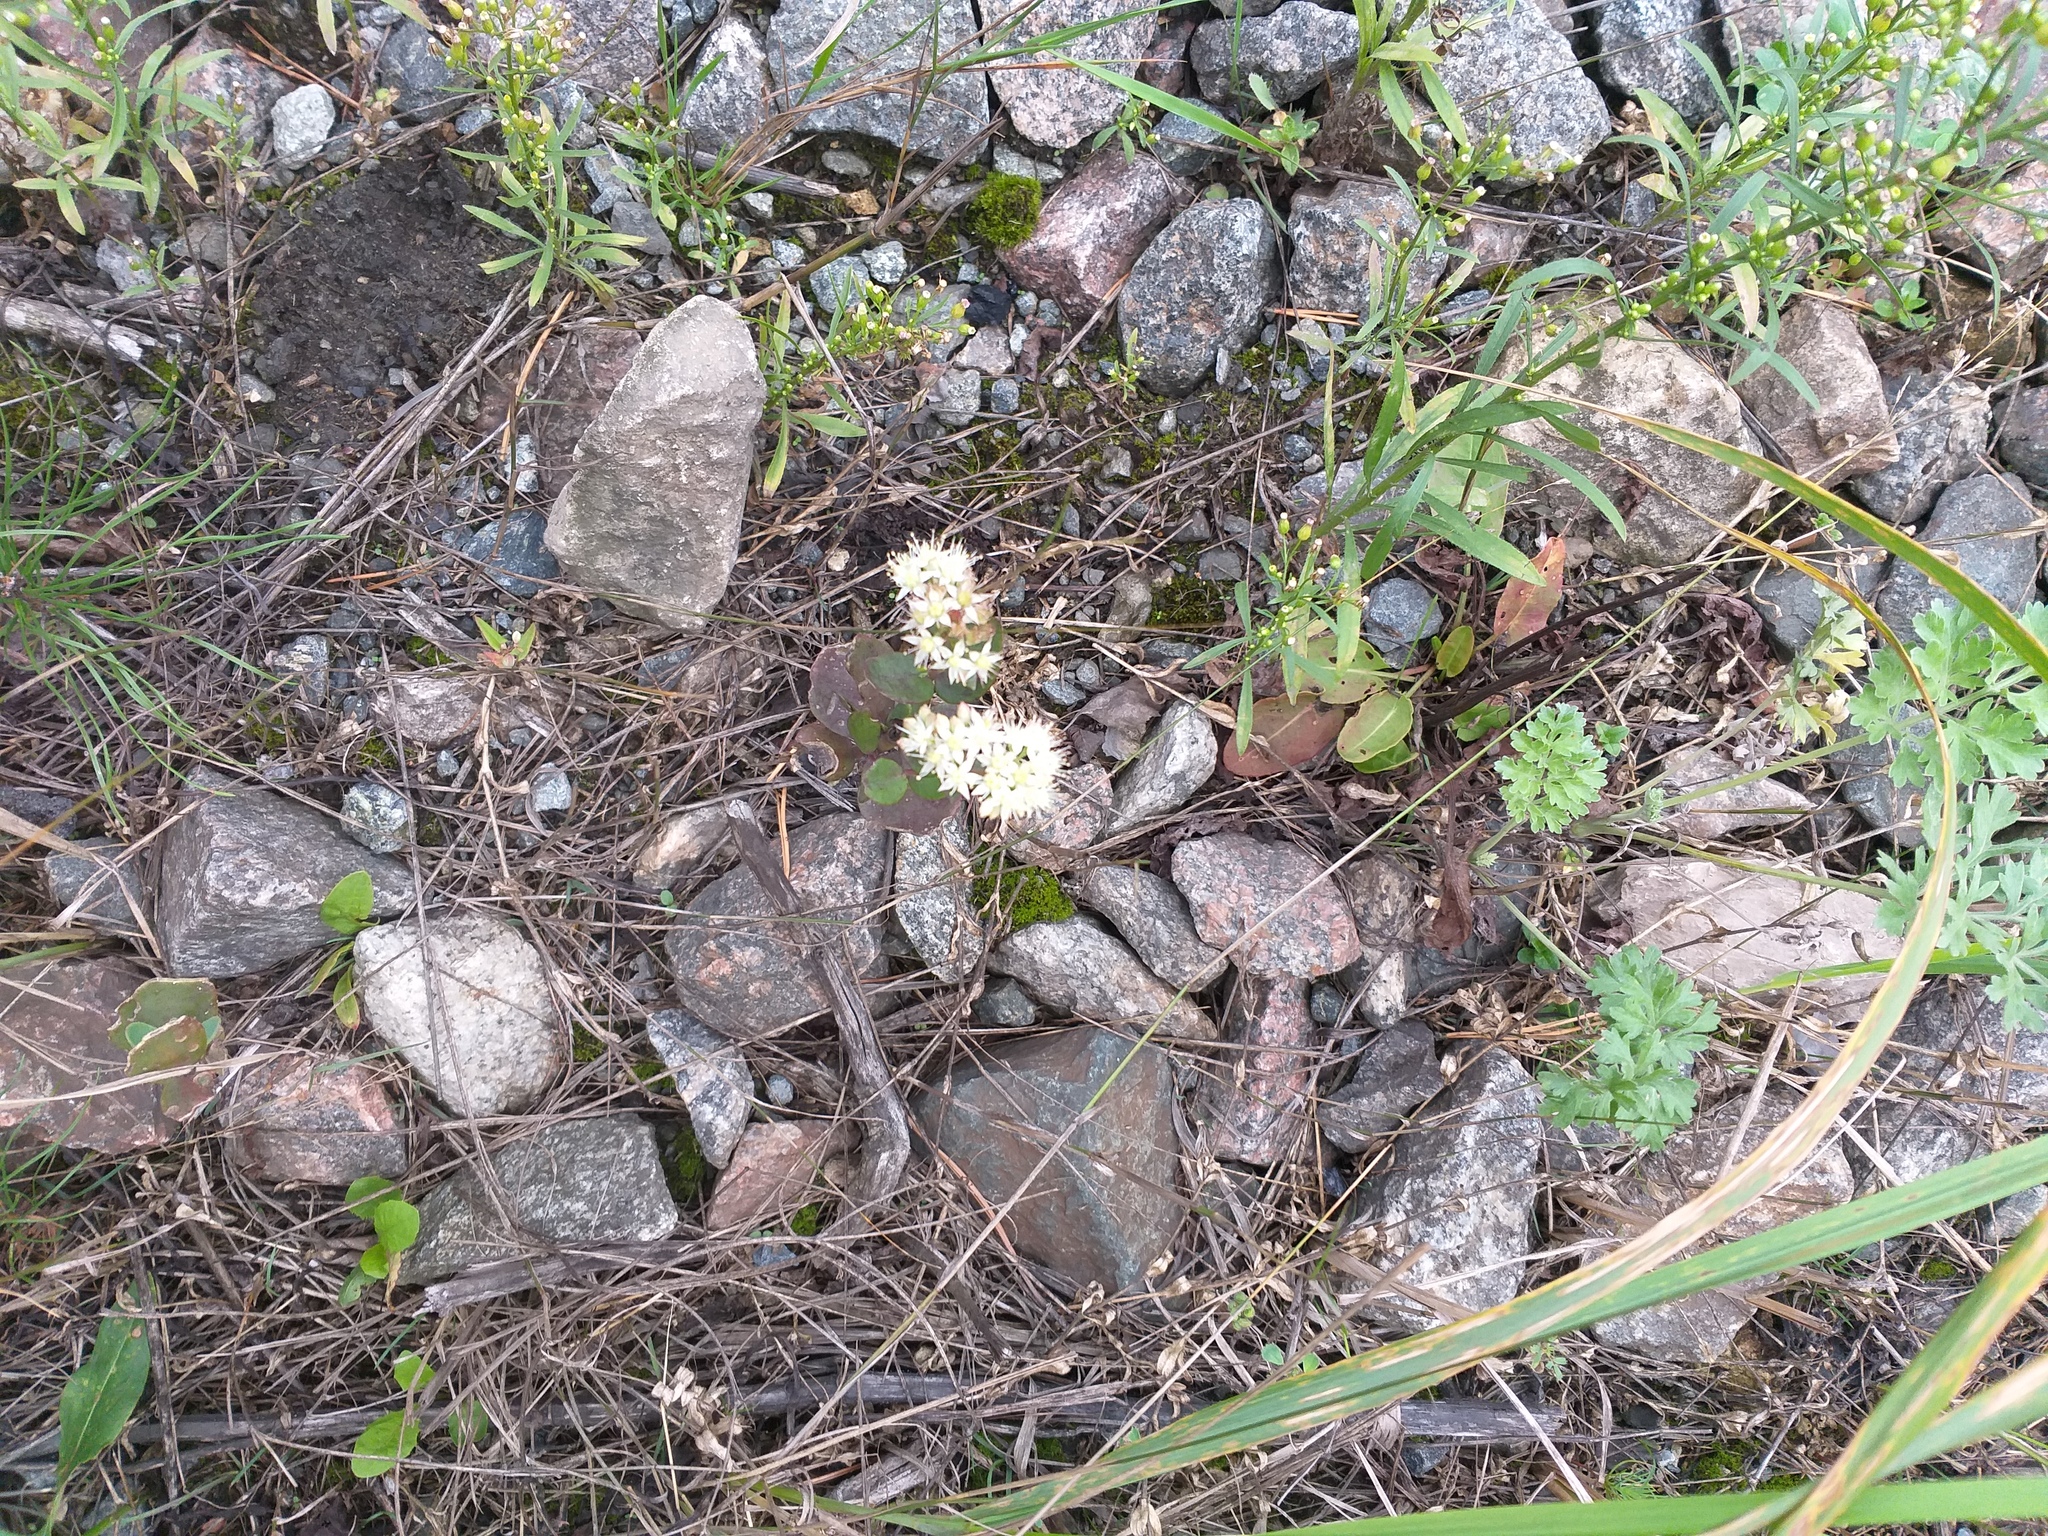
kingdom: Plantae
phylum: Tracheophyta
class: Magnoliopsida
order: Saxifragales
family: Crassulaceae
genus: Hylotelephium
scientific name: Hylotelephium maximum
